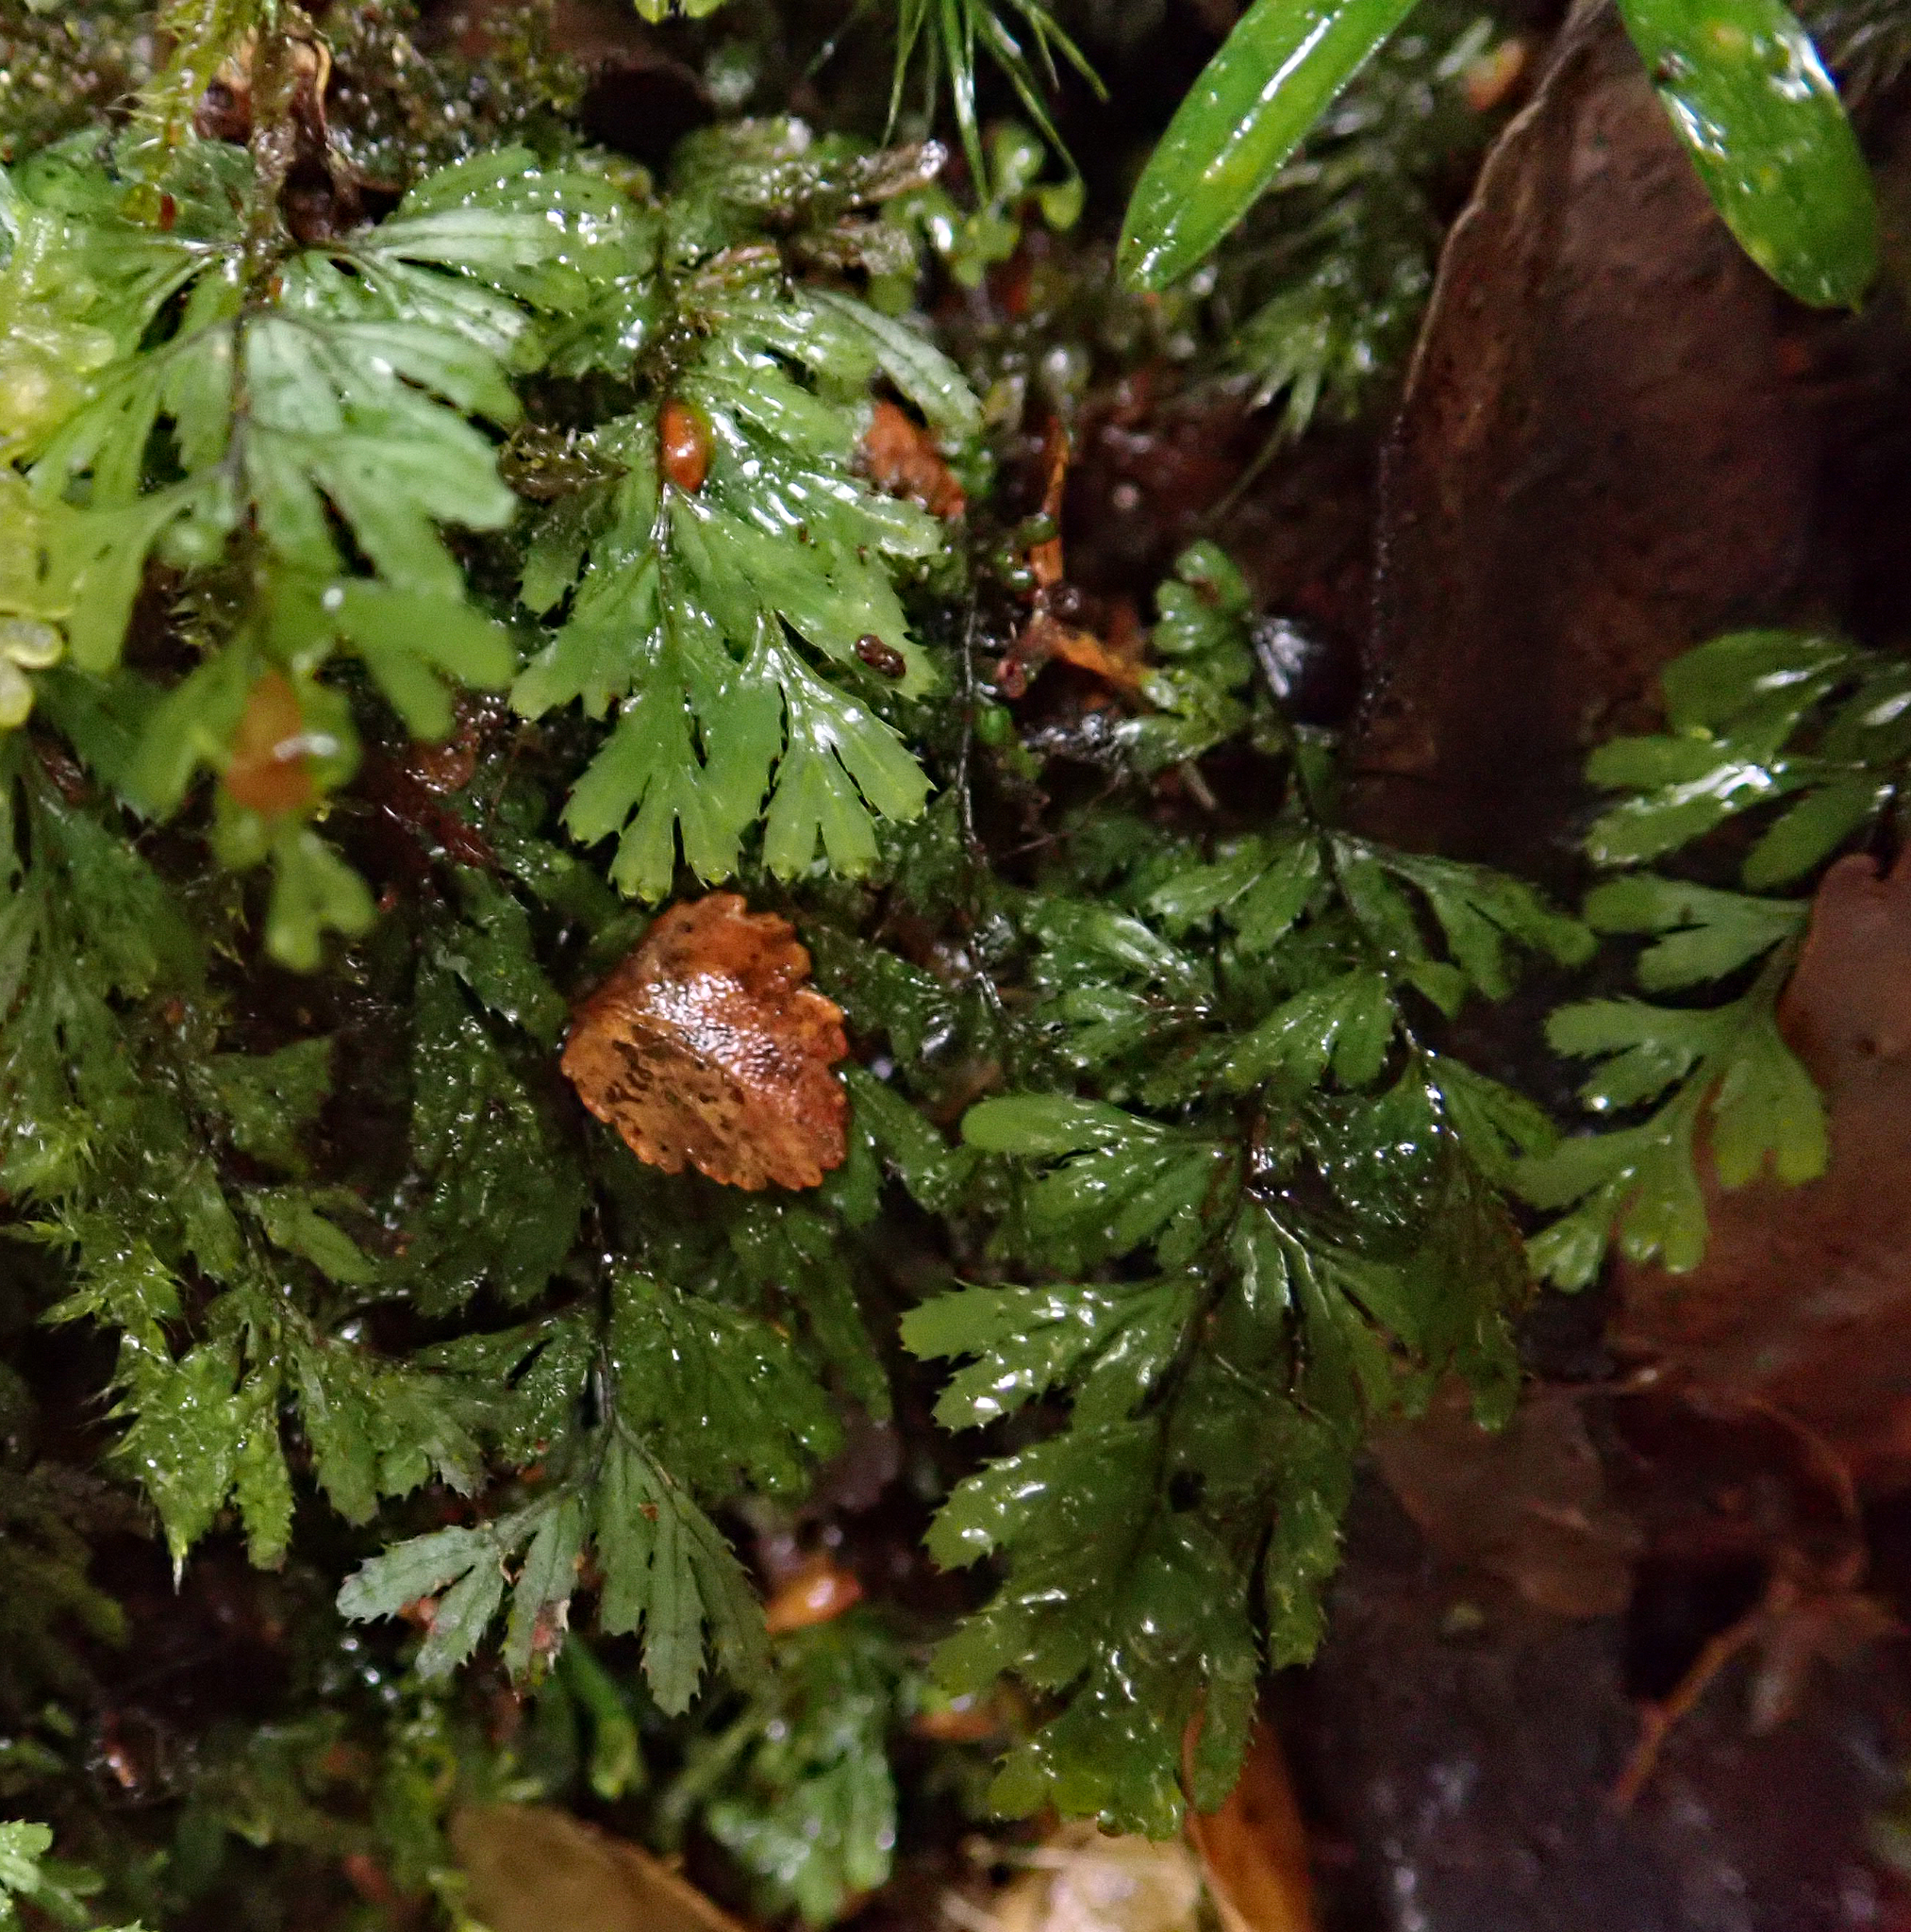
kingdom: Plantae
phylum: Tracheophyta
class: Polypodiopsida
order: Hymenophyllales
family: Hymenophyllaceae
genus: Hymenophyllum
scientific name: Hymenophyllum peltatum
